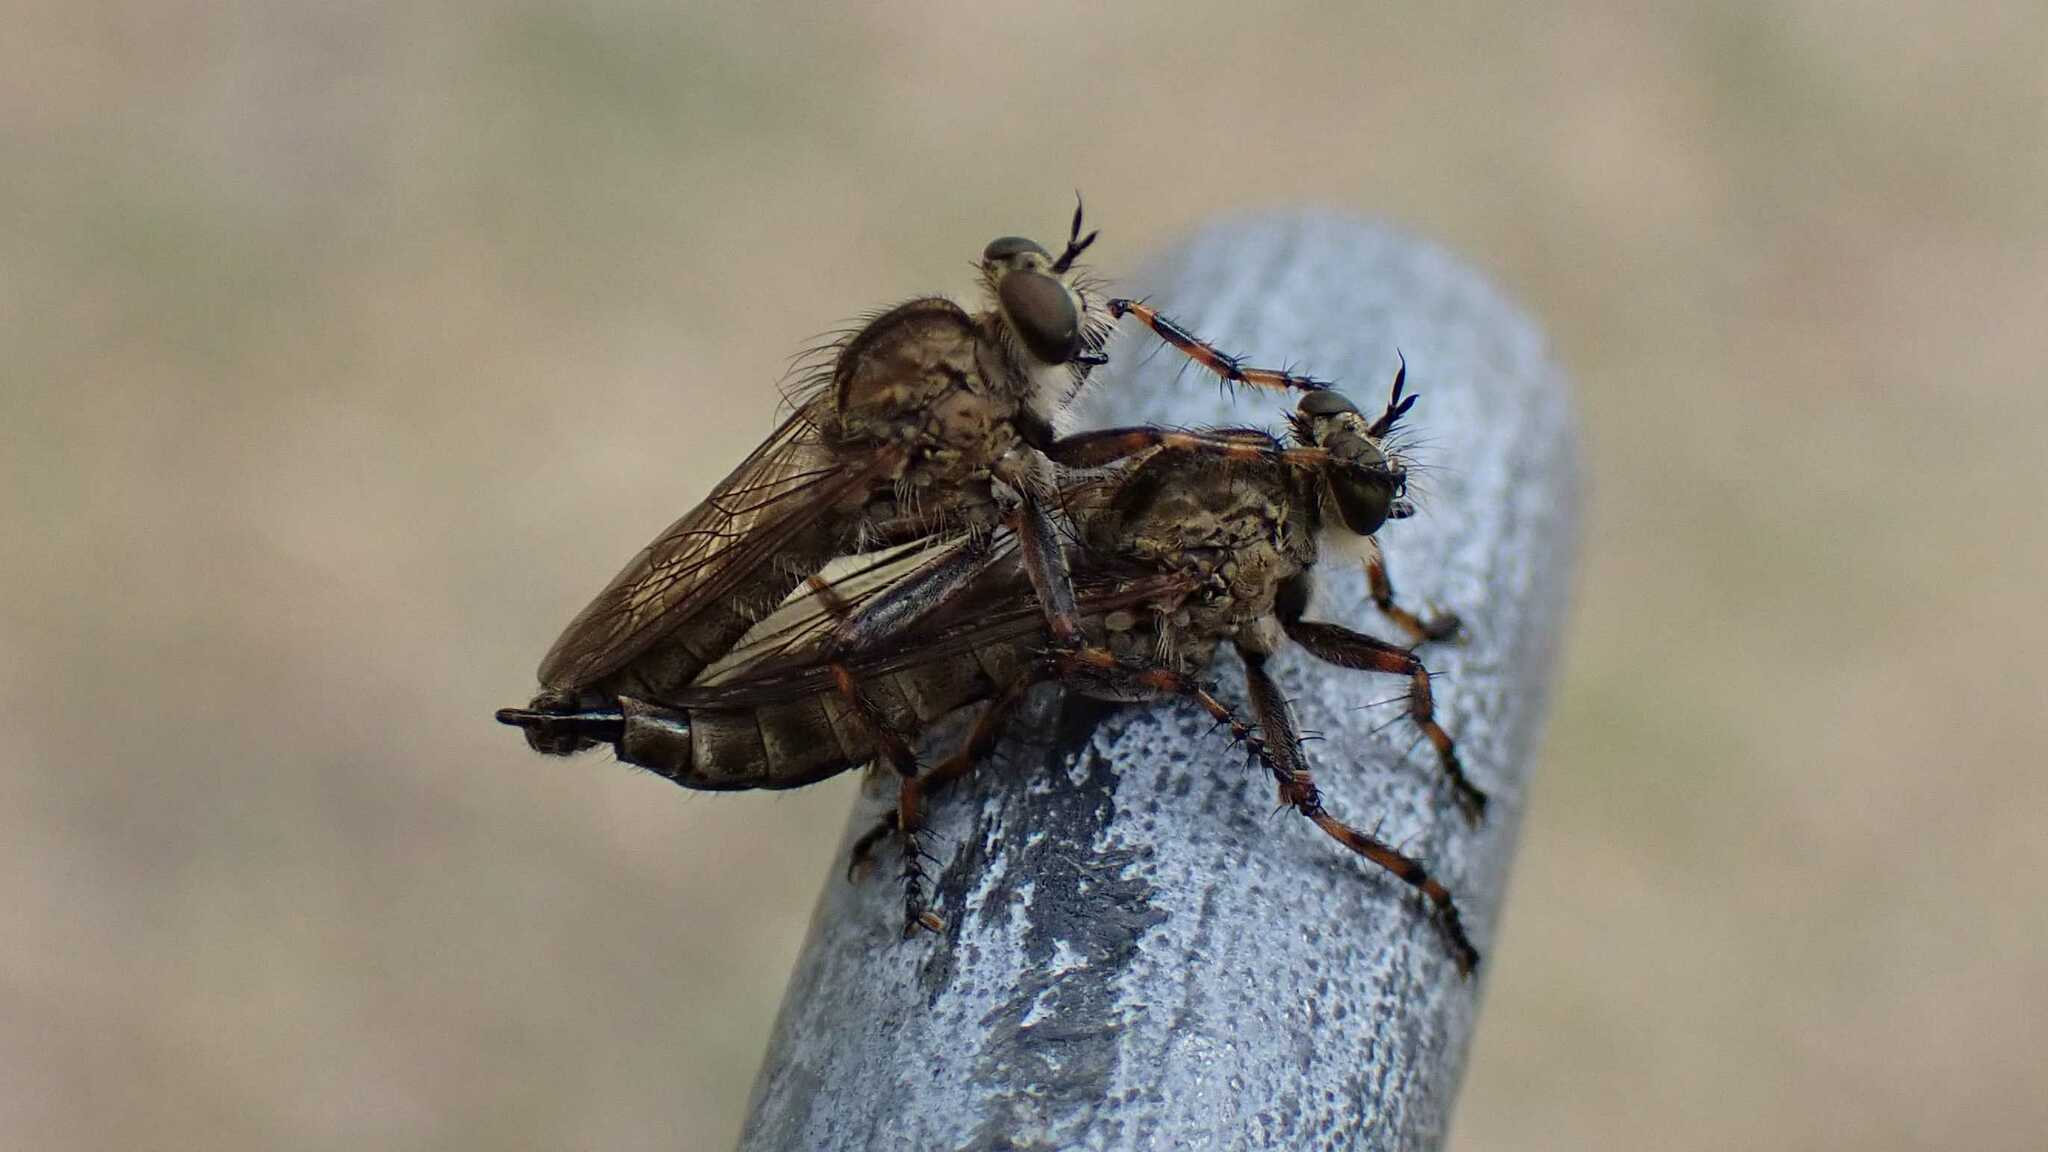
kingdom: Animalia
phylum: Arthropoda
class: Insecta
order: Diptera
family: Asilidae
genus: Epitriptus
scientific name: Epitriptus cingulatus
